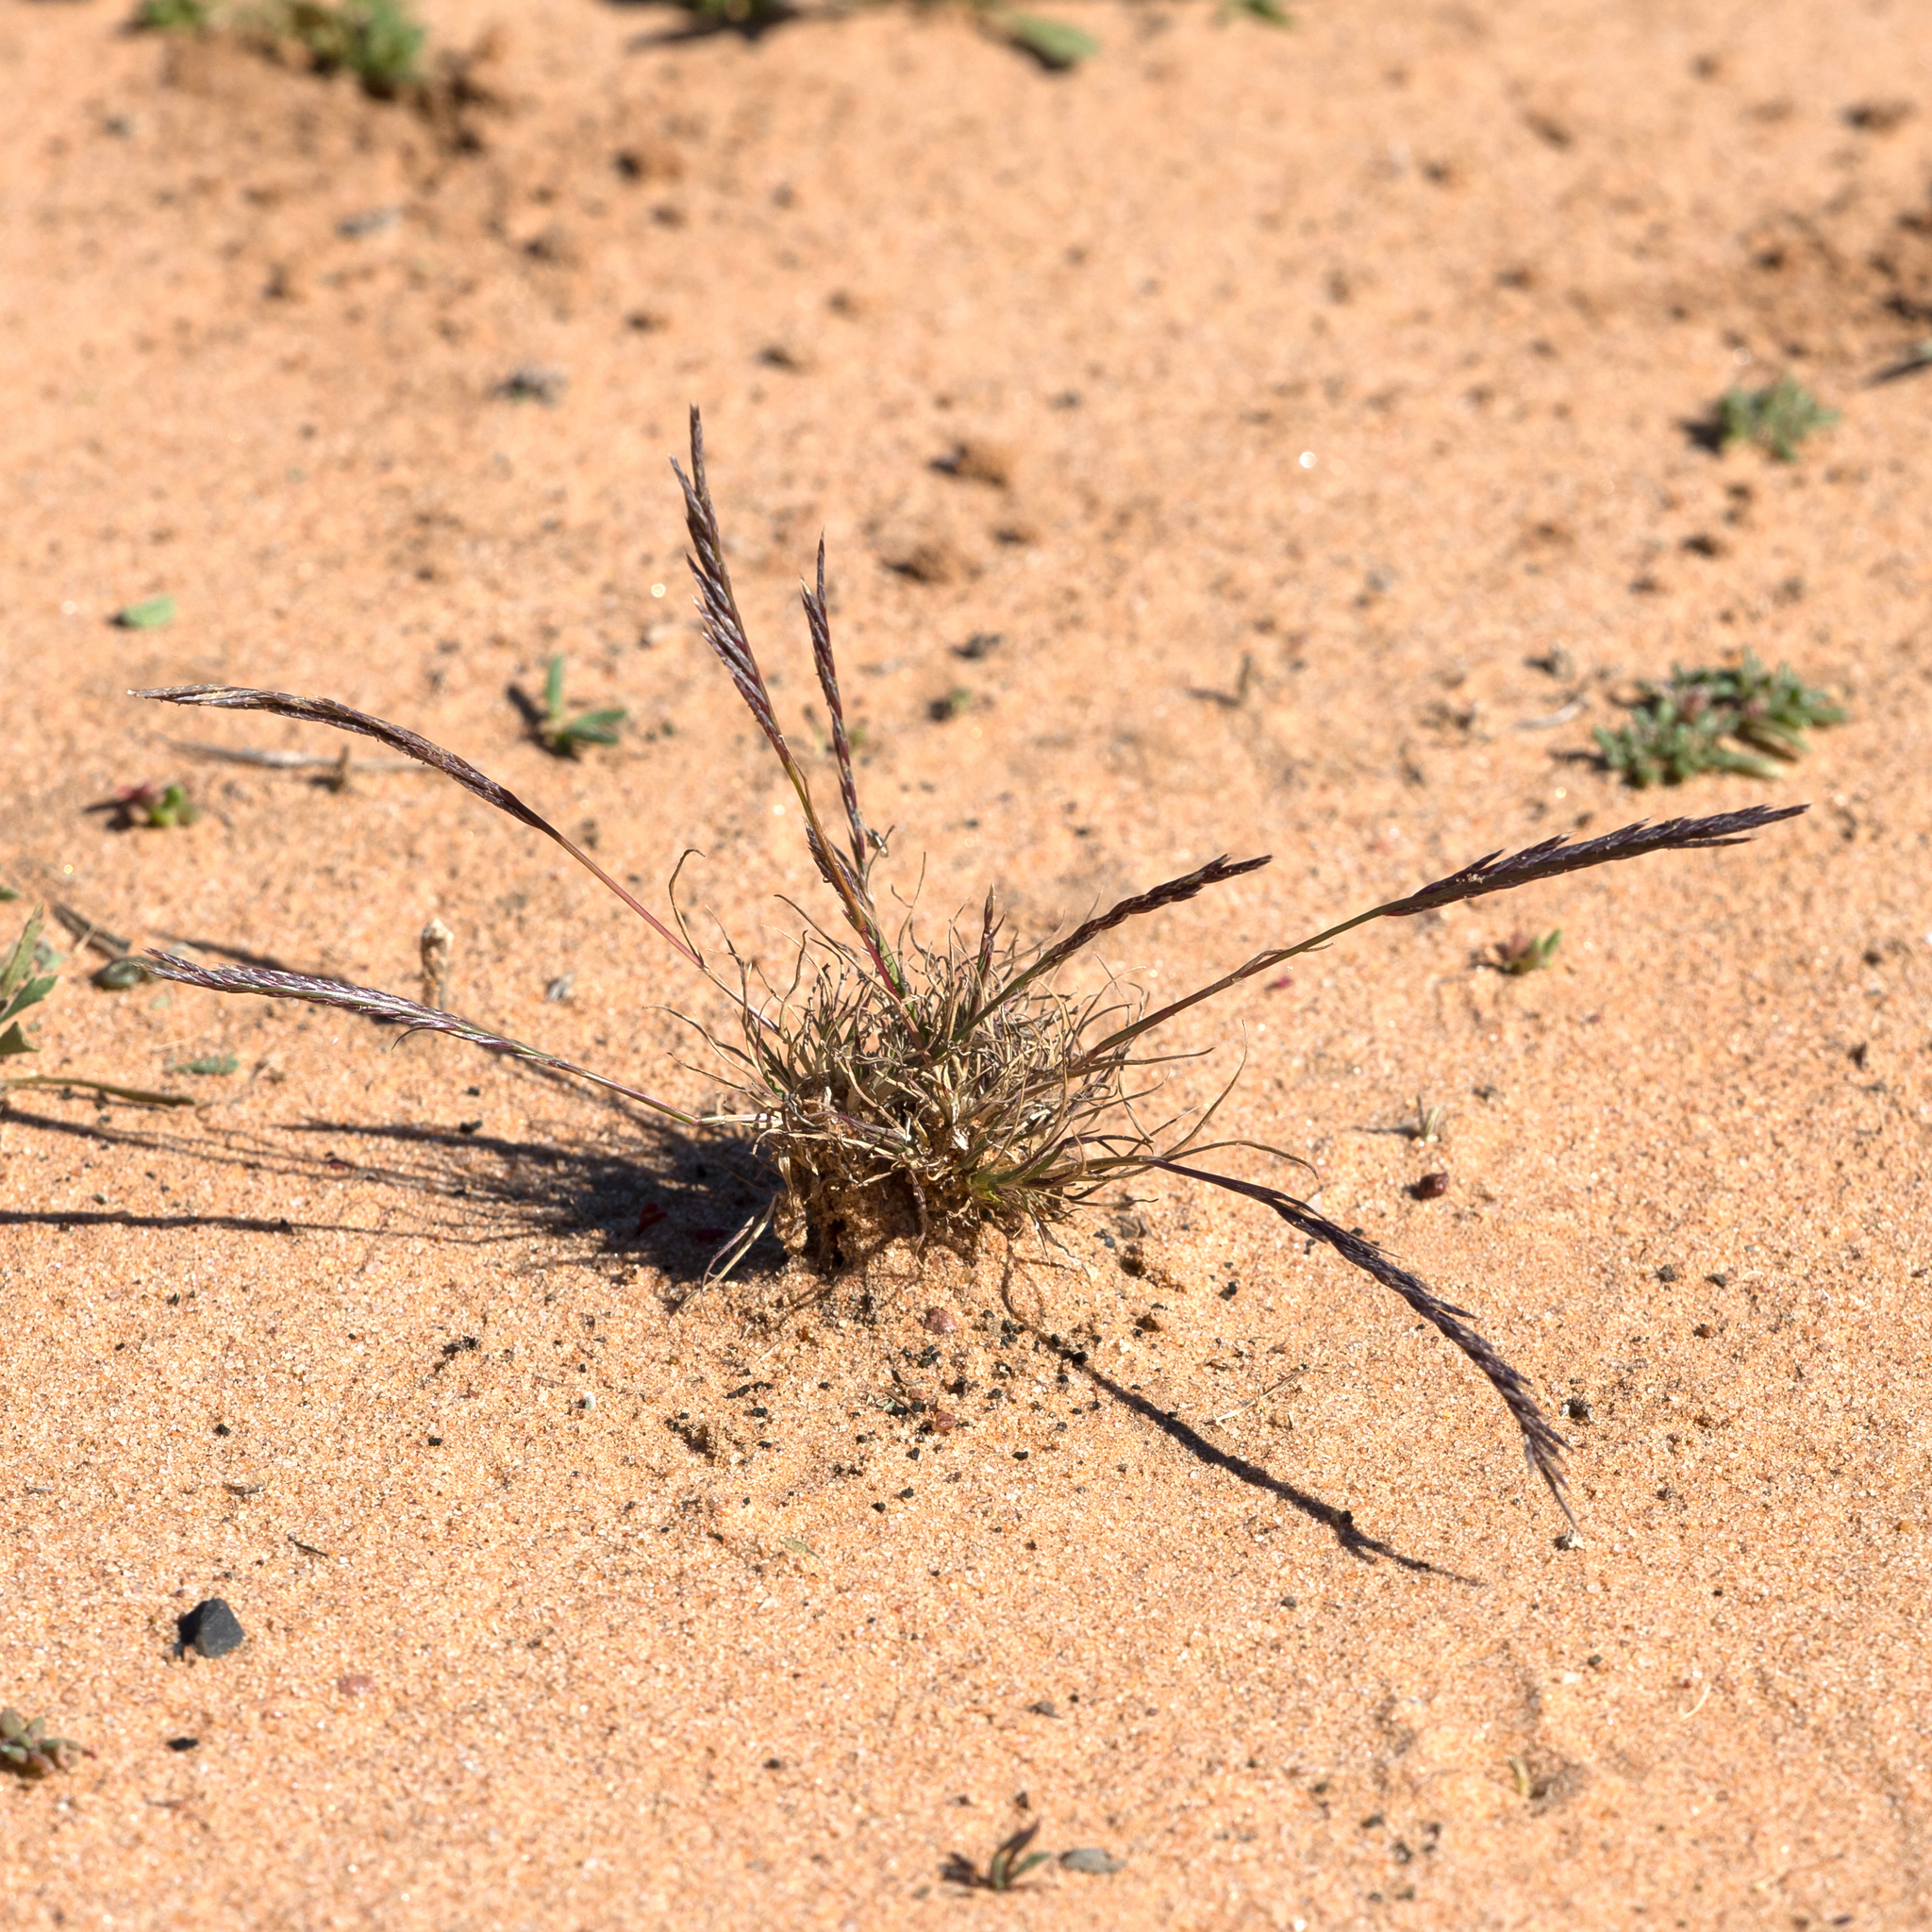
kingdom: Plantae
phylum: Tracheophyta
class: Liliopsida
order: Poales
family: Poaceae
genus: Tripogonella
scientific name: Tripogonella loliiformis
